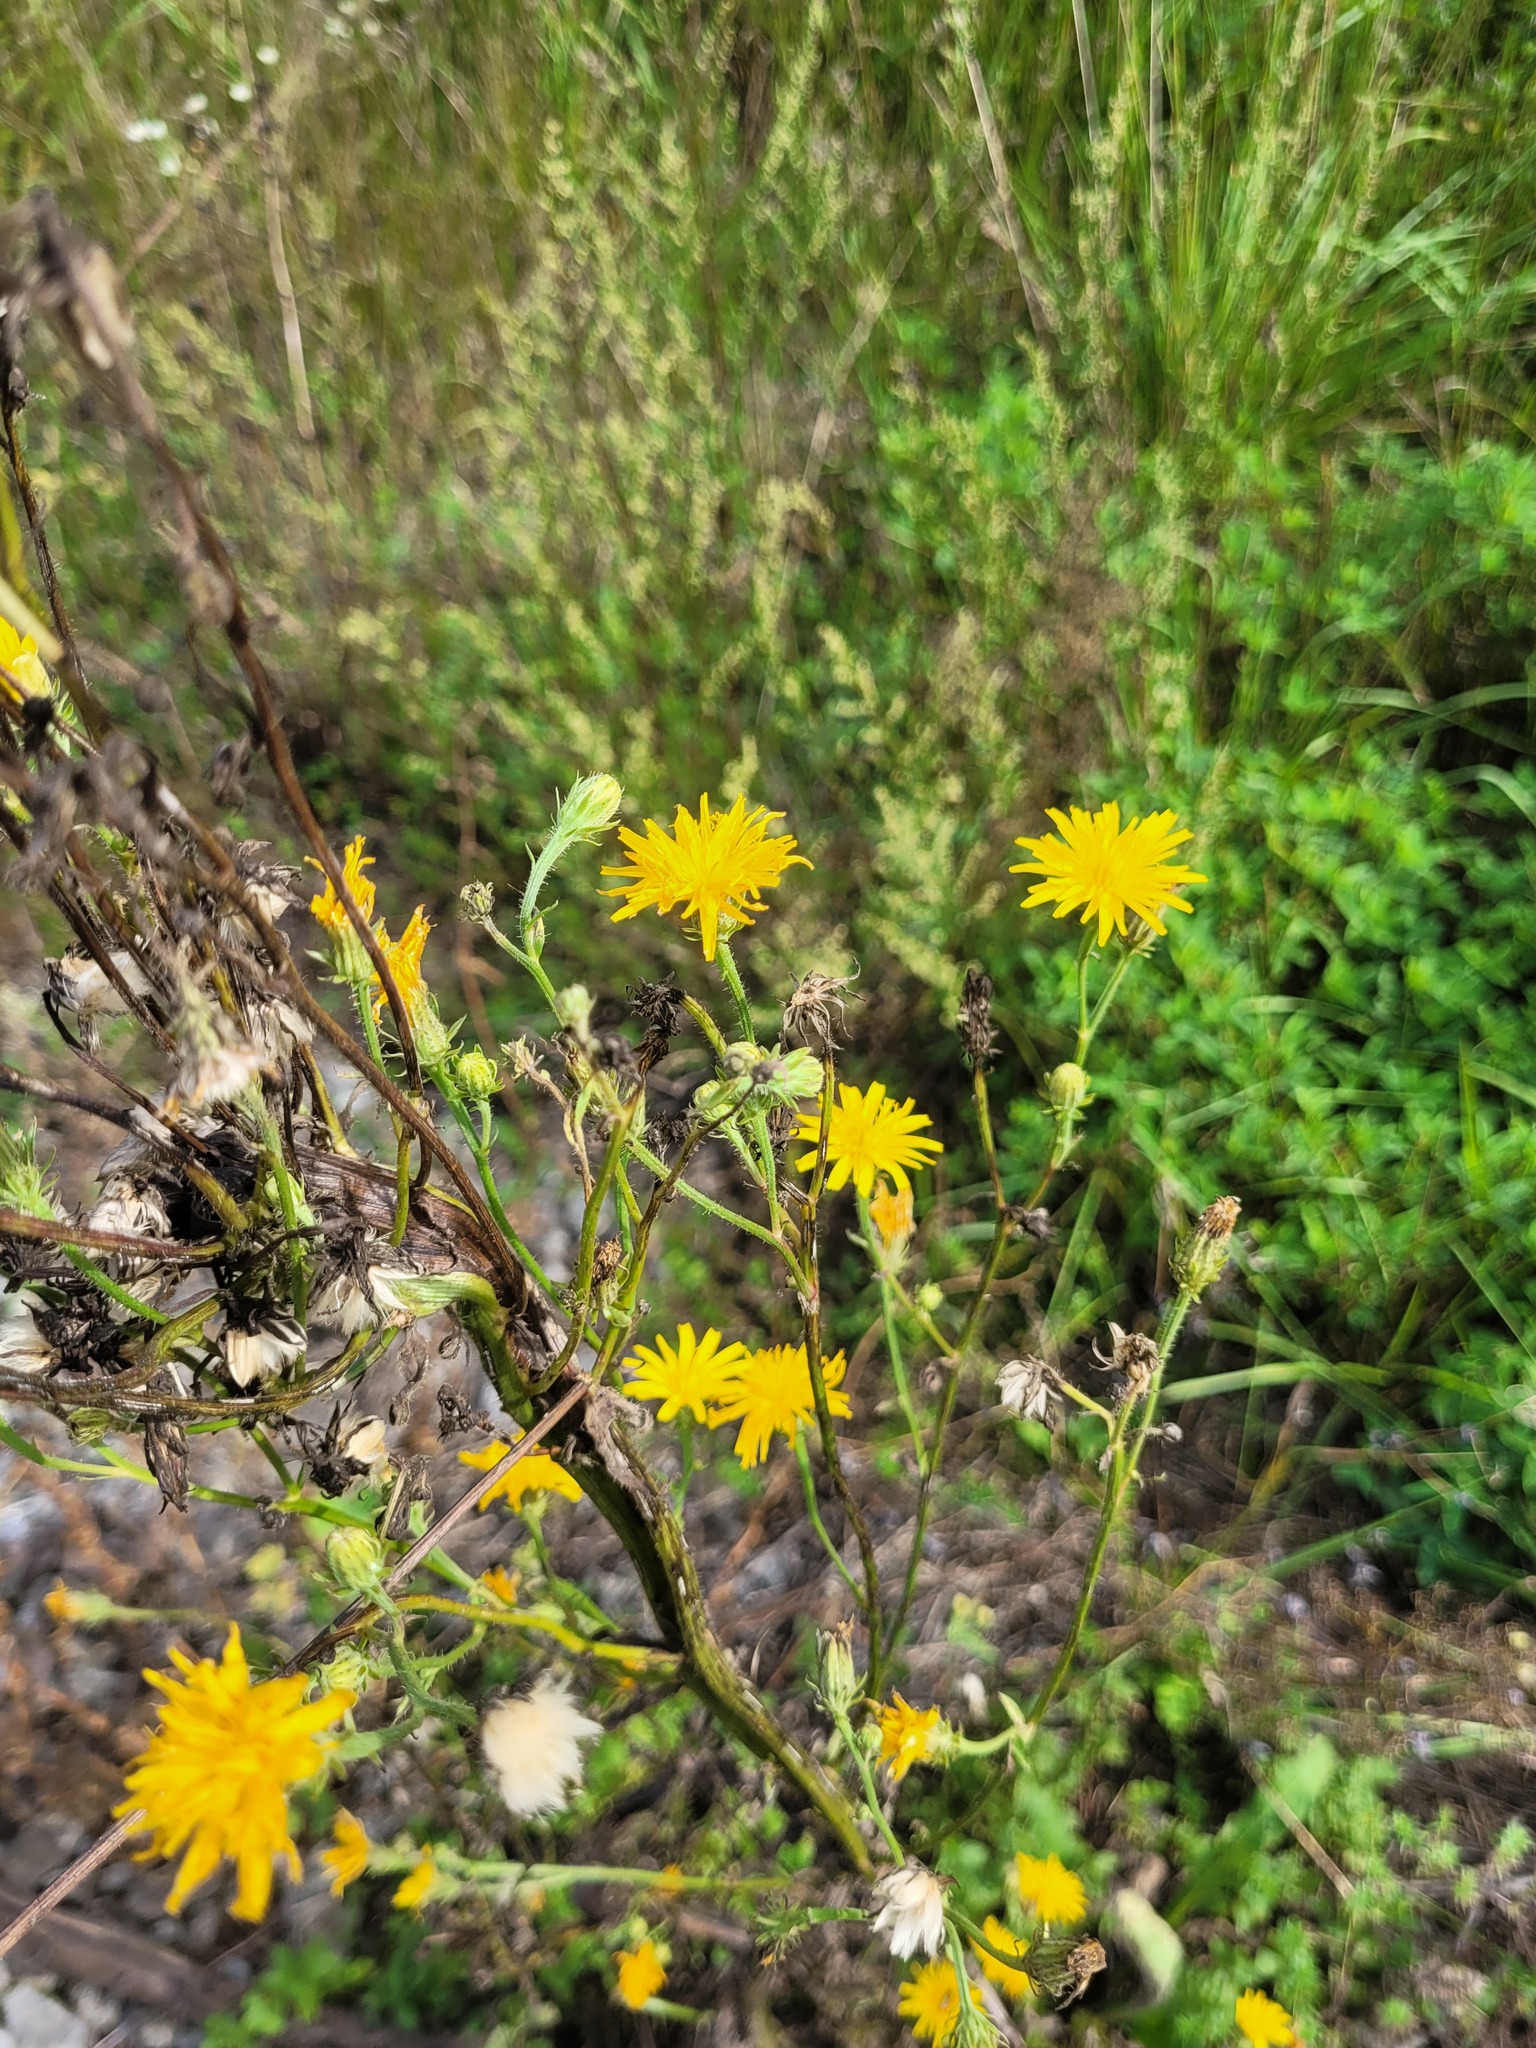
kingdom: Plantae
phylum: Tracheophyta
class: Magnoliopsida
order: Asterales
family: Asteraceae
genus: Picris
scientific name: Picris hieracioides
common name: Hawkweed oxtongue
